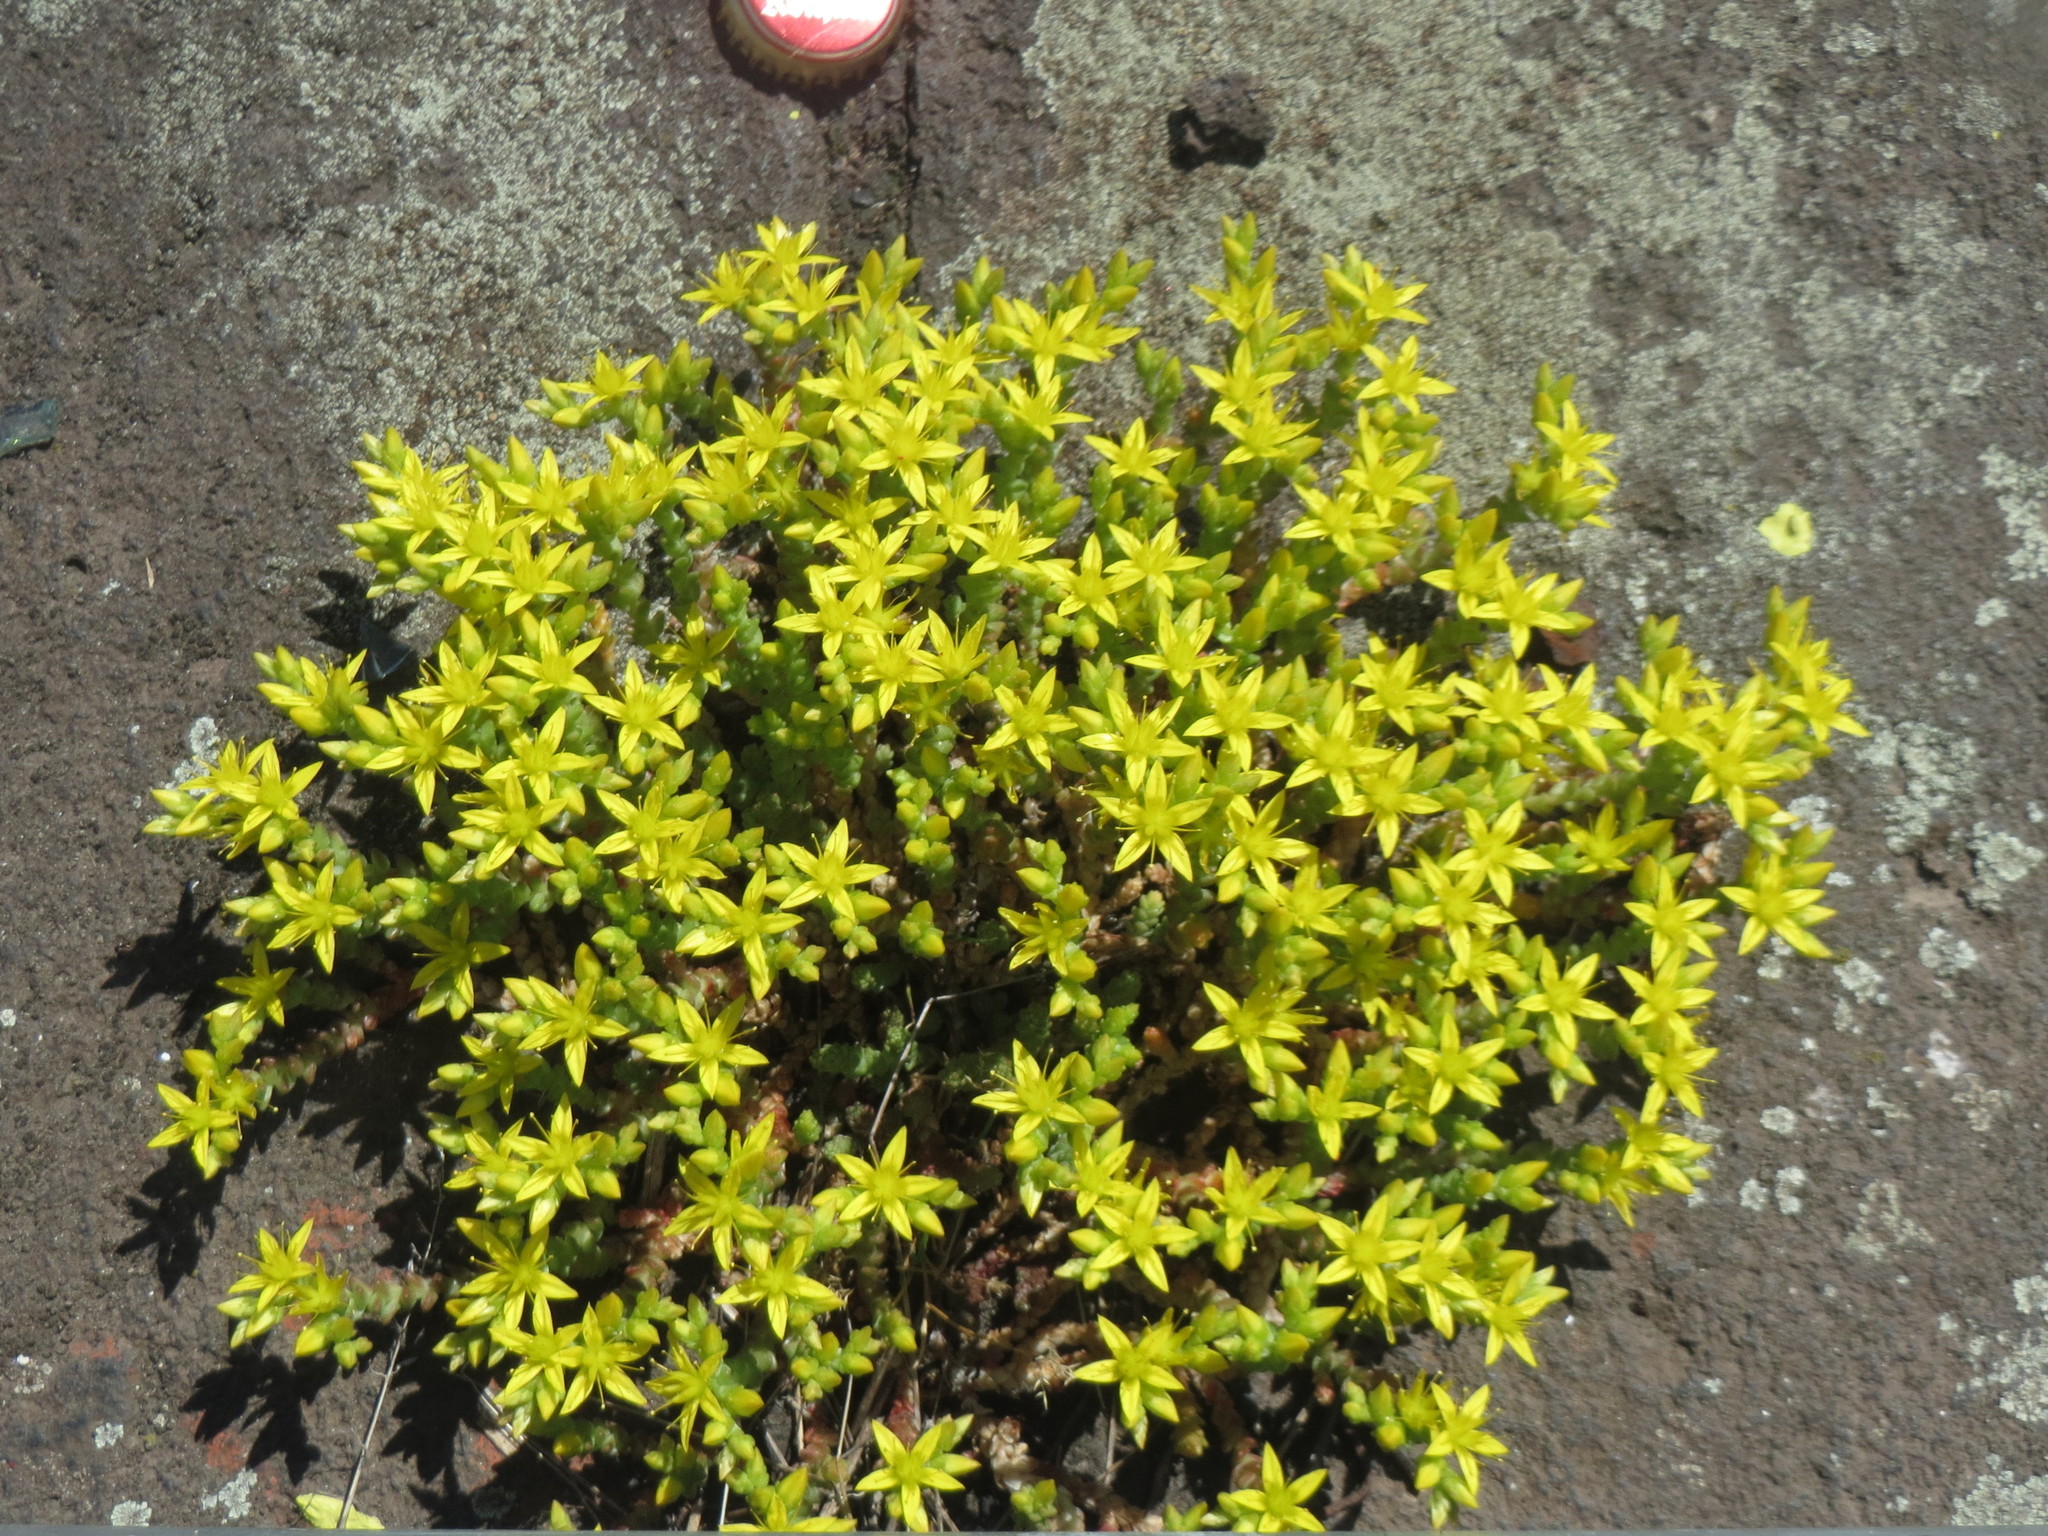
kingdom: Plantae
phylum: Tracheophyta
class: Magnoliopsida
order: Saxifragales
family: Crassulaceae
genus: Sedum
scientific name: Sedum acre
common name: Biting stonecrop
